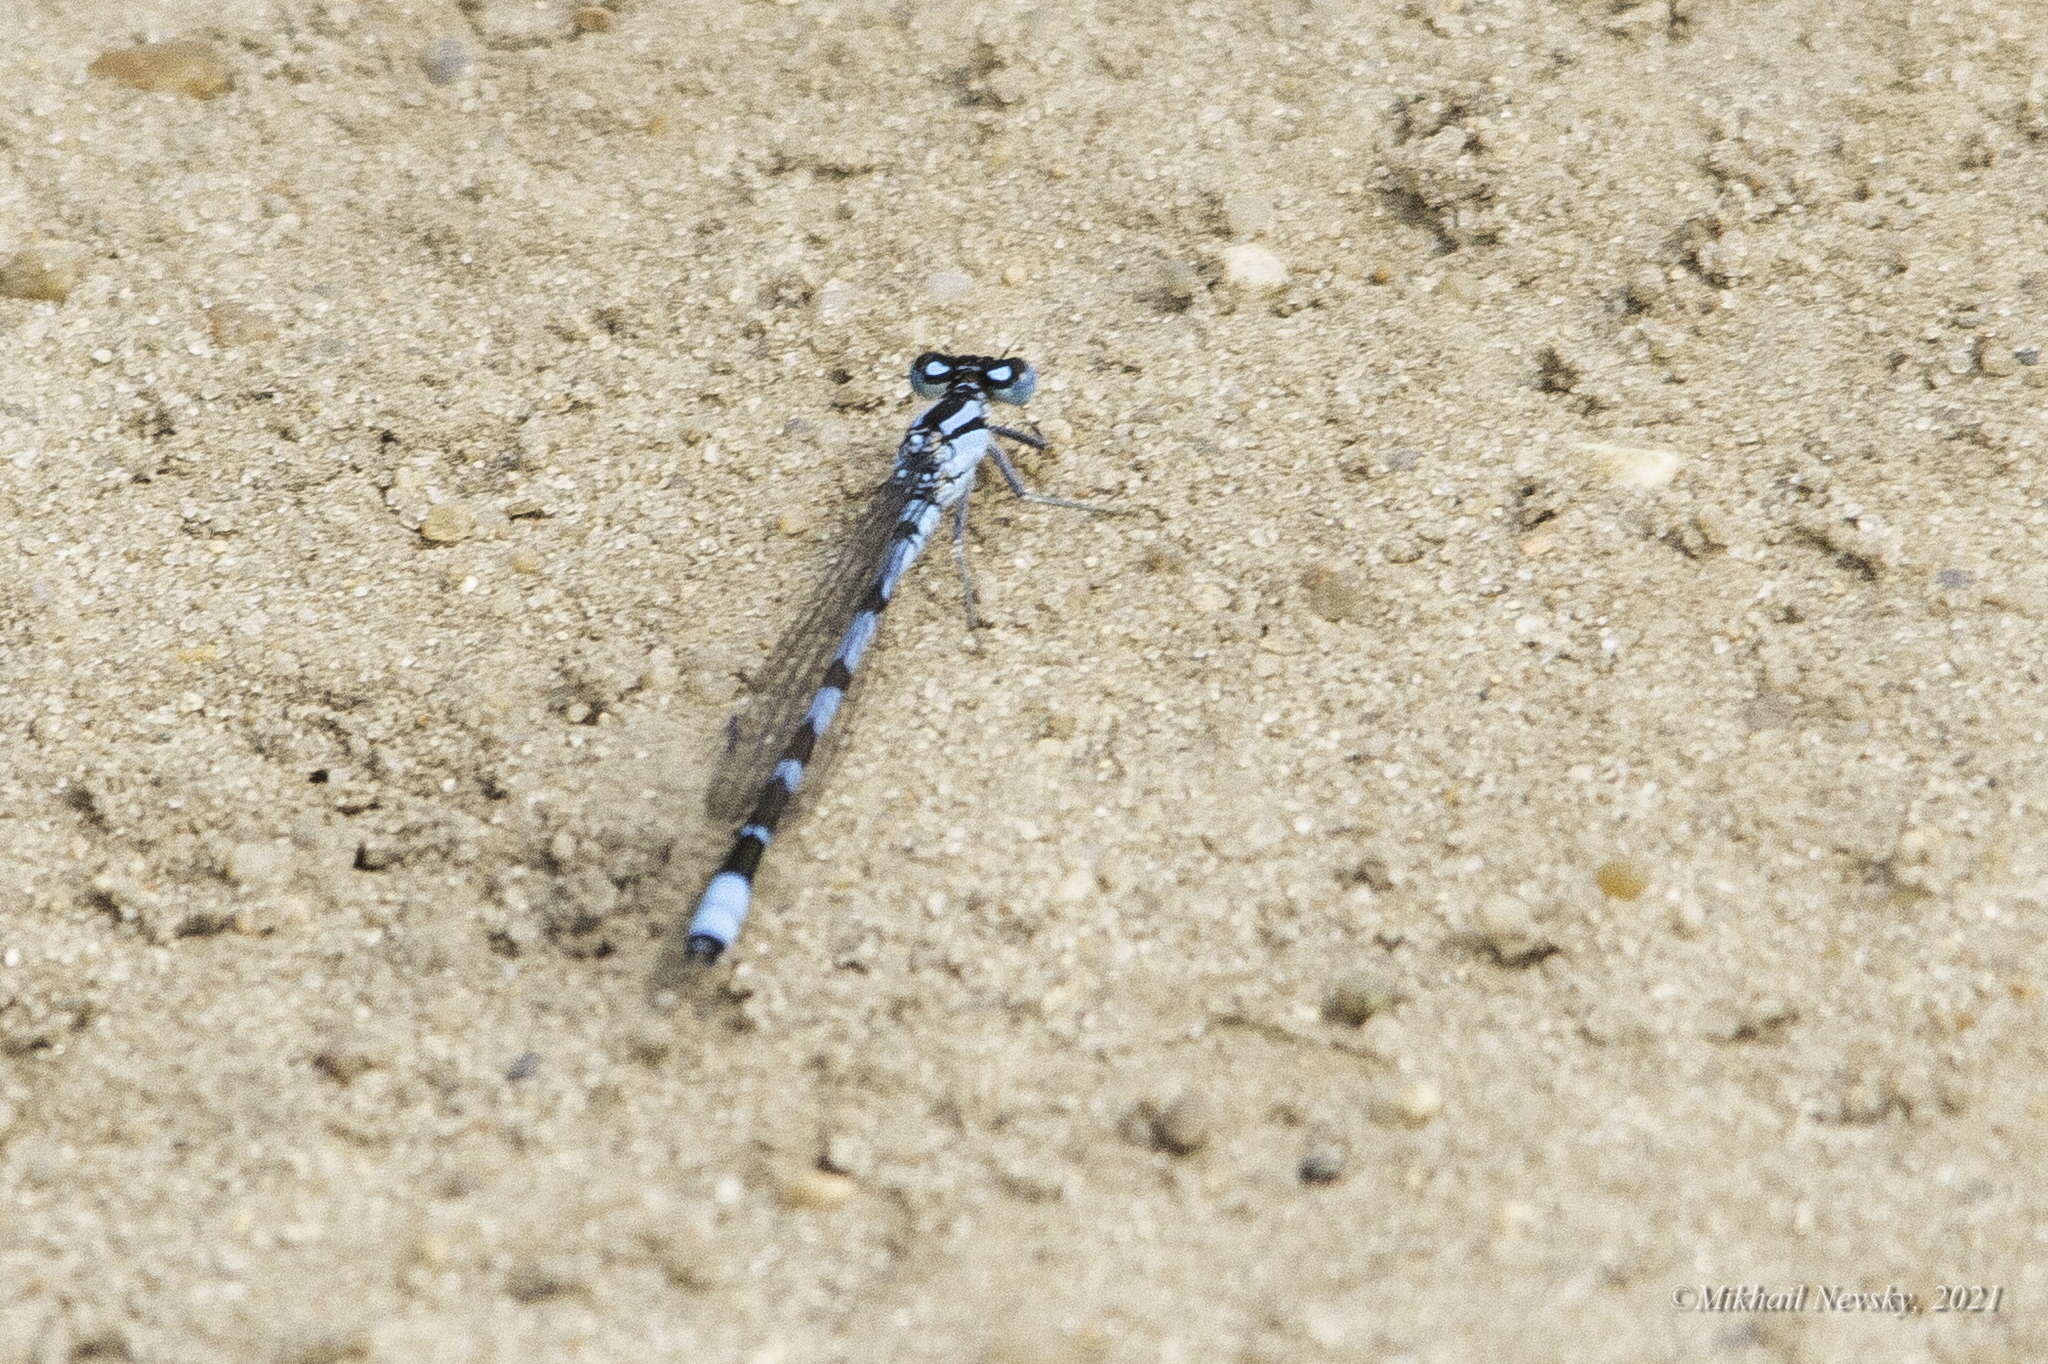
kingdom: Animalia
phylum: Arthropoda
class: Insecta
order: Odonata
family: Coenagrionidae
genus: Enallagma
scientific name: Enallagma cyathigerum
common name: Common blue damselfly
